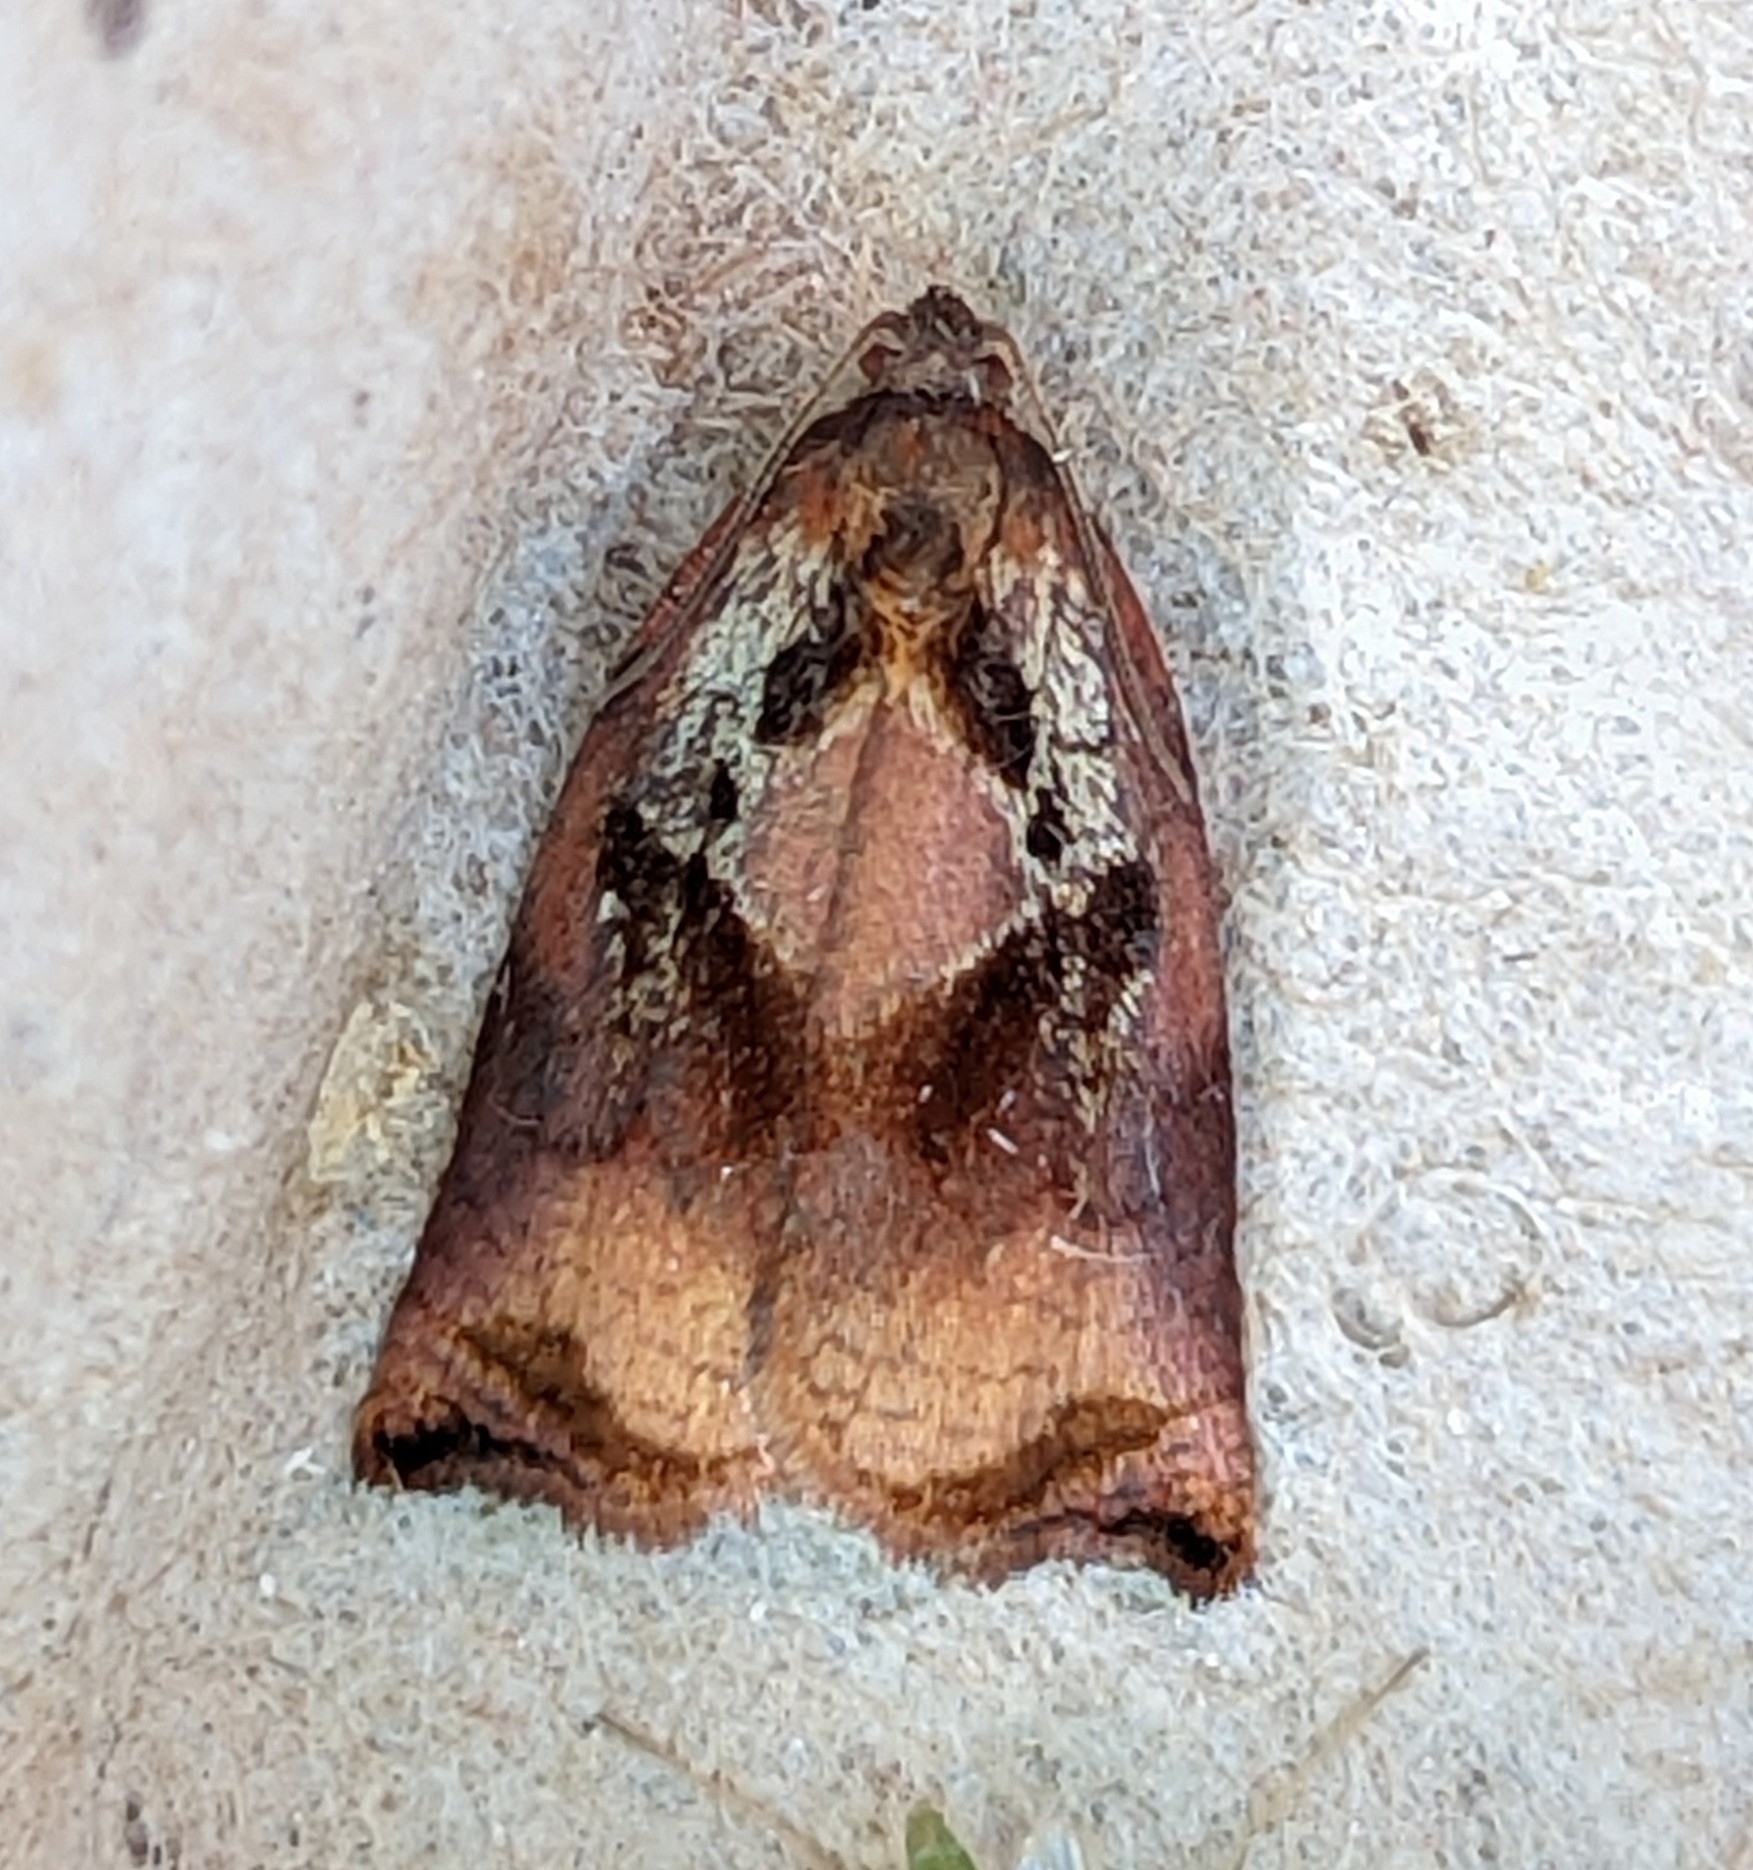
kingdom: Animalia
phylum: Arthropoda
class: Insecta
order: Lepidoptera
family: Tortricidae
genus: Archips
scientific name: Archips podana
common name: Large fruit-tree tortrix
